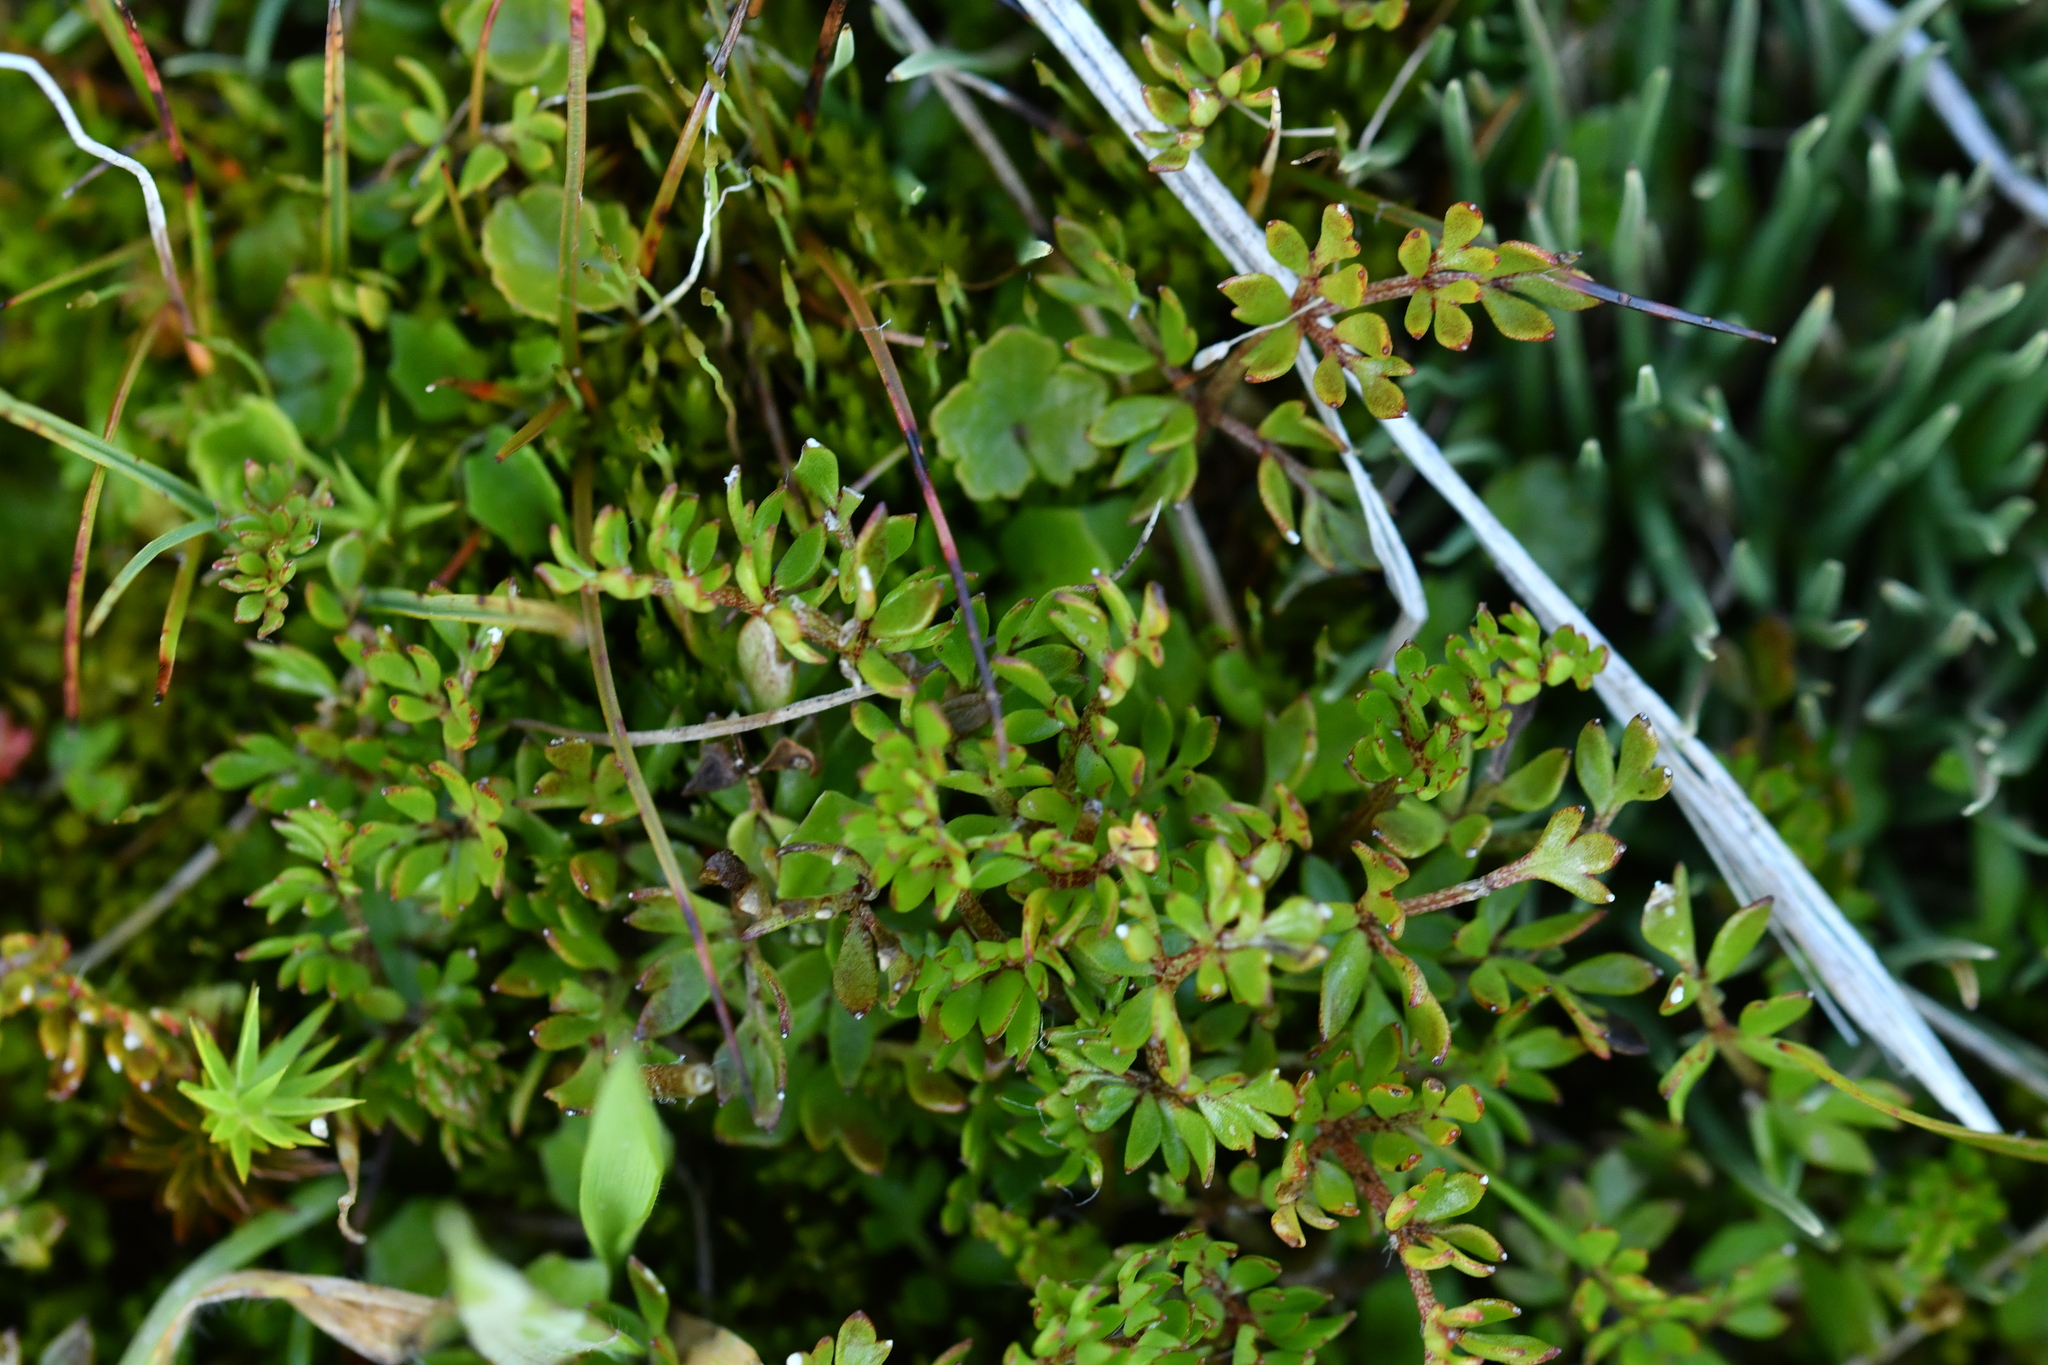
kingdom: Plantae
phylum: Tracheophyta
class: Magnoliopsida
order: Ranunculales
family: Ranunculaceae
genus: Ranunculus
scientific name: Ranunculus gracilipes
